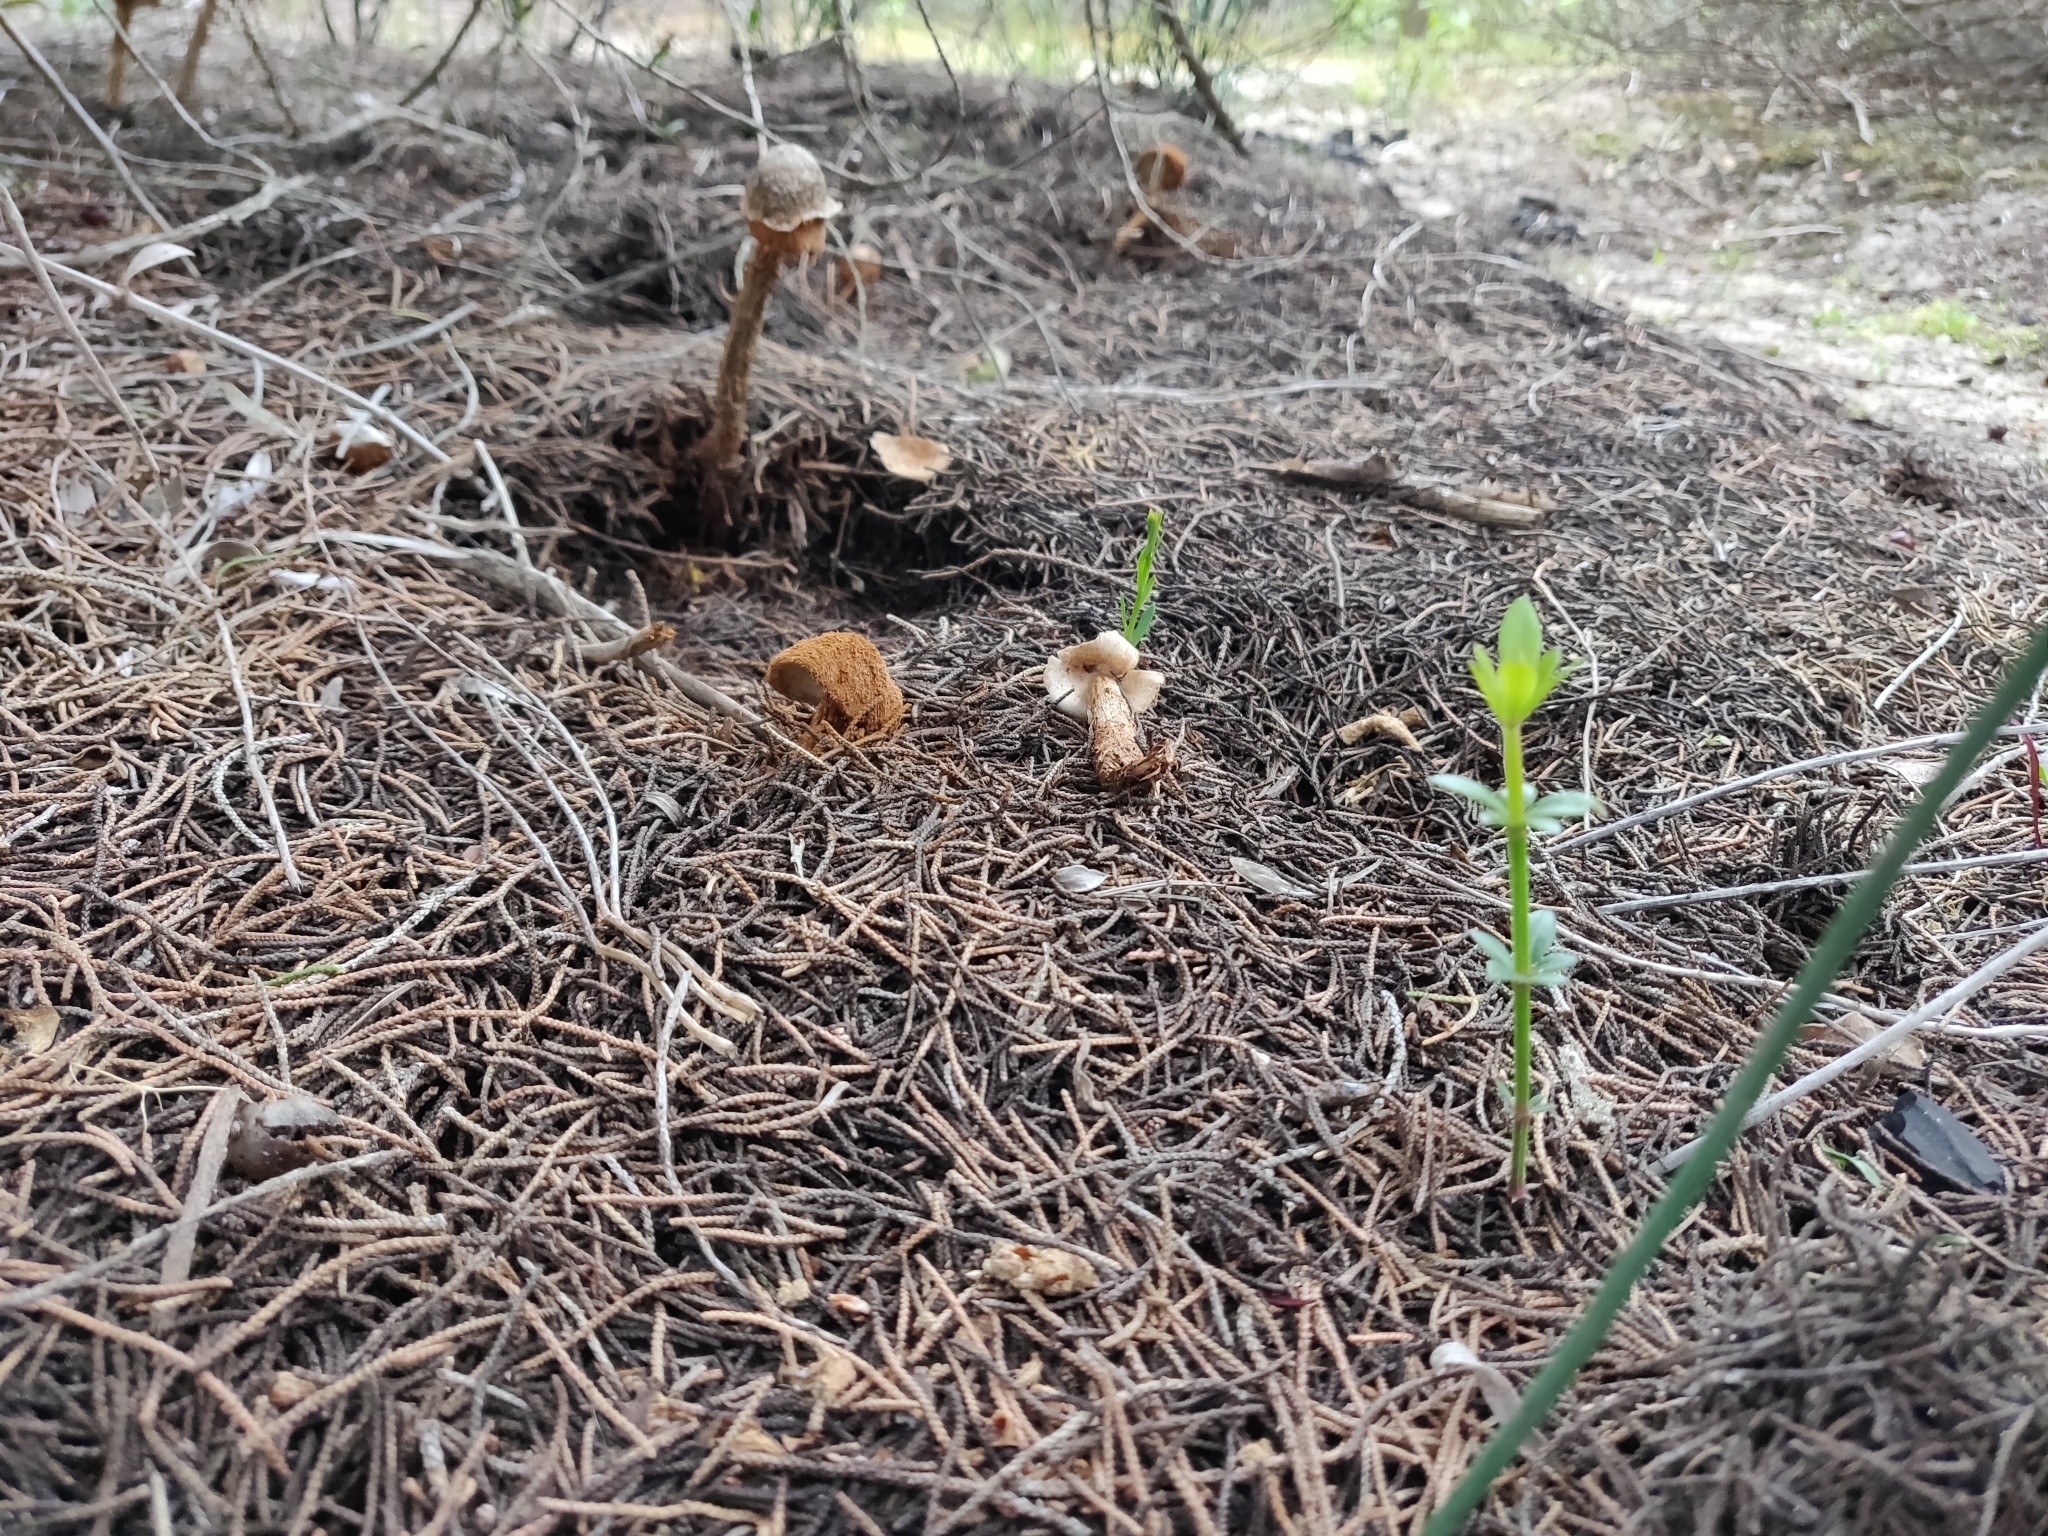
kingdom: Fungi
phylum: Basidiomycota
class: Agaricomycetes
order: Agaricales
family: Agaricaceae
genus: Battarrea
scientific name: Battarrea phalloides
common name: Sandy stiltball
